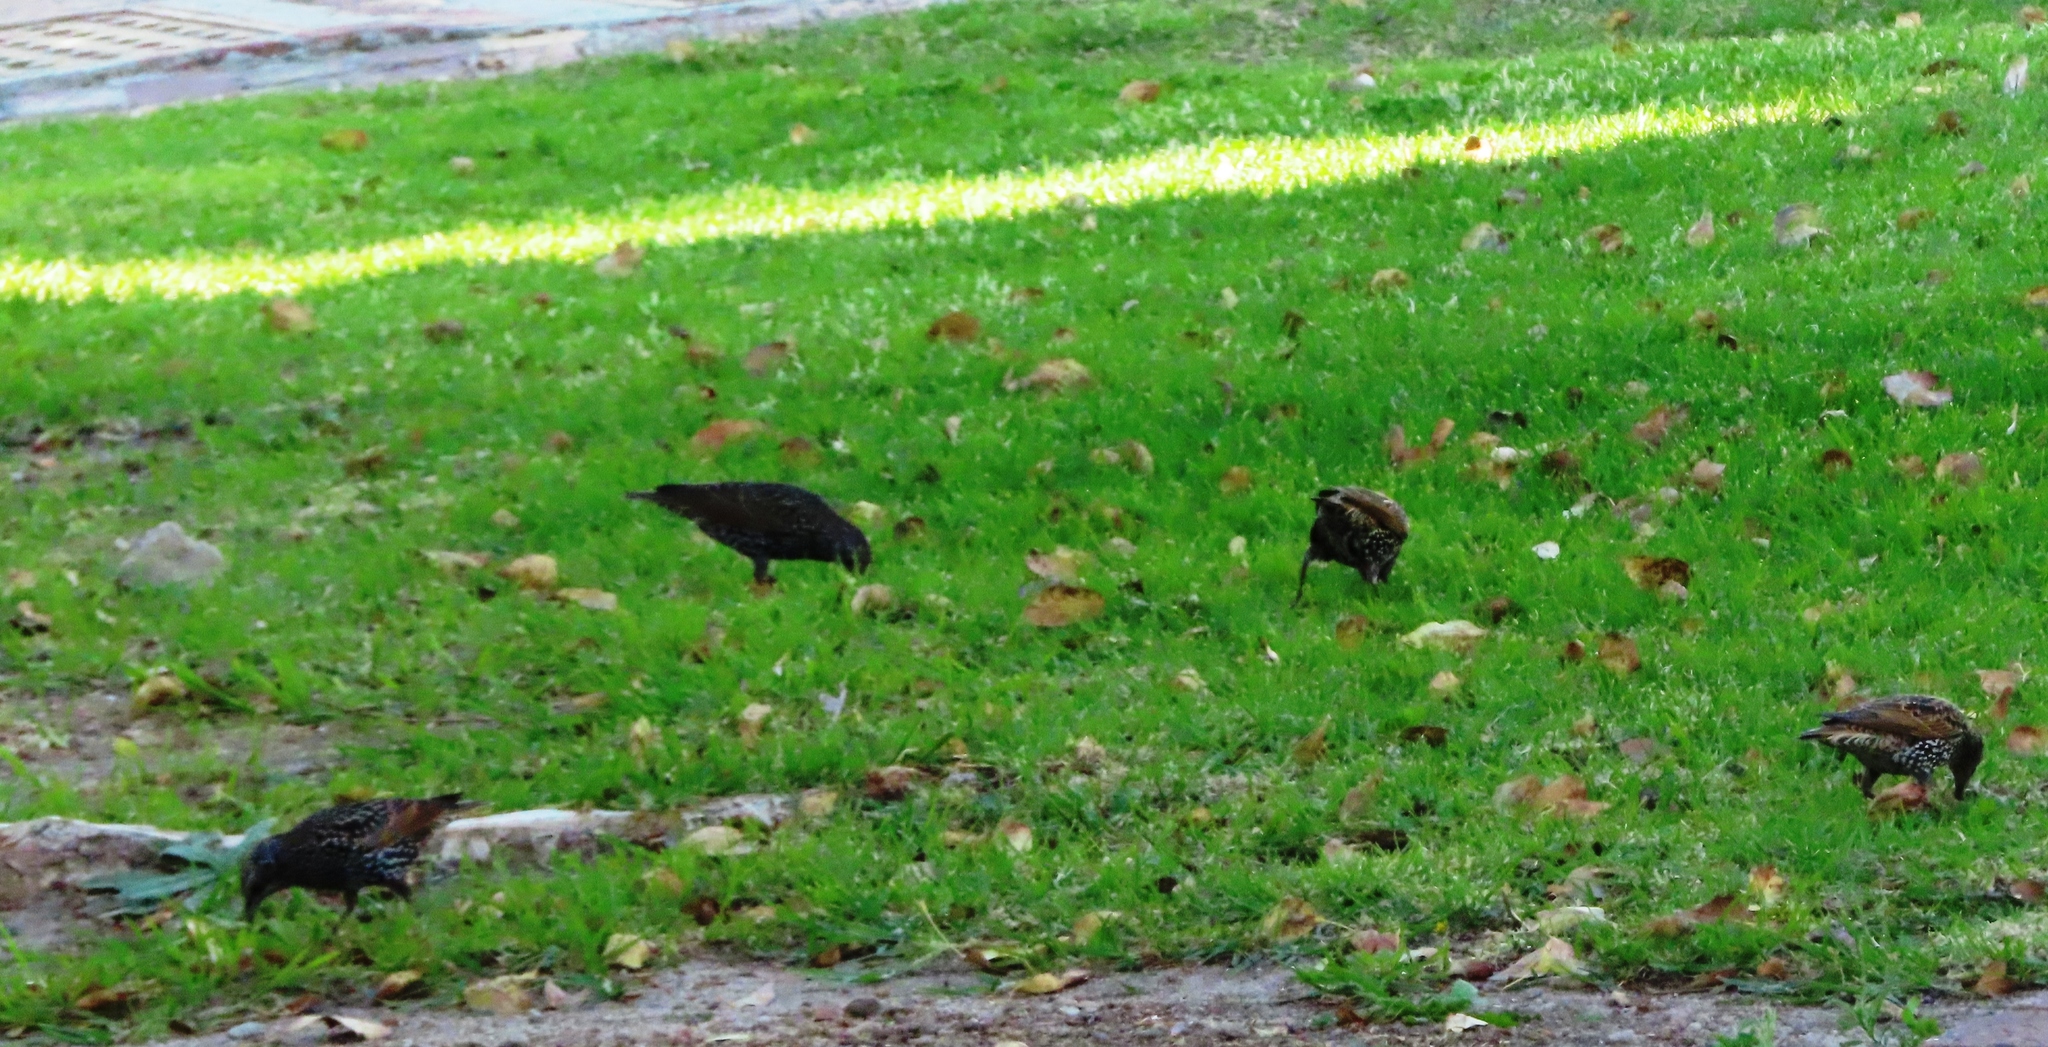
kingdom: Animalia
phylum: Chordata
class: Aves
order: Passeriformes
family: Sturnidae
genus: Sturnus
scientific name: Sturnus vulgaris
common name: Common starling
